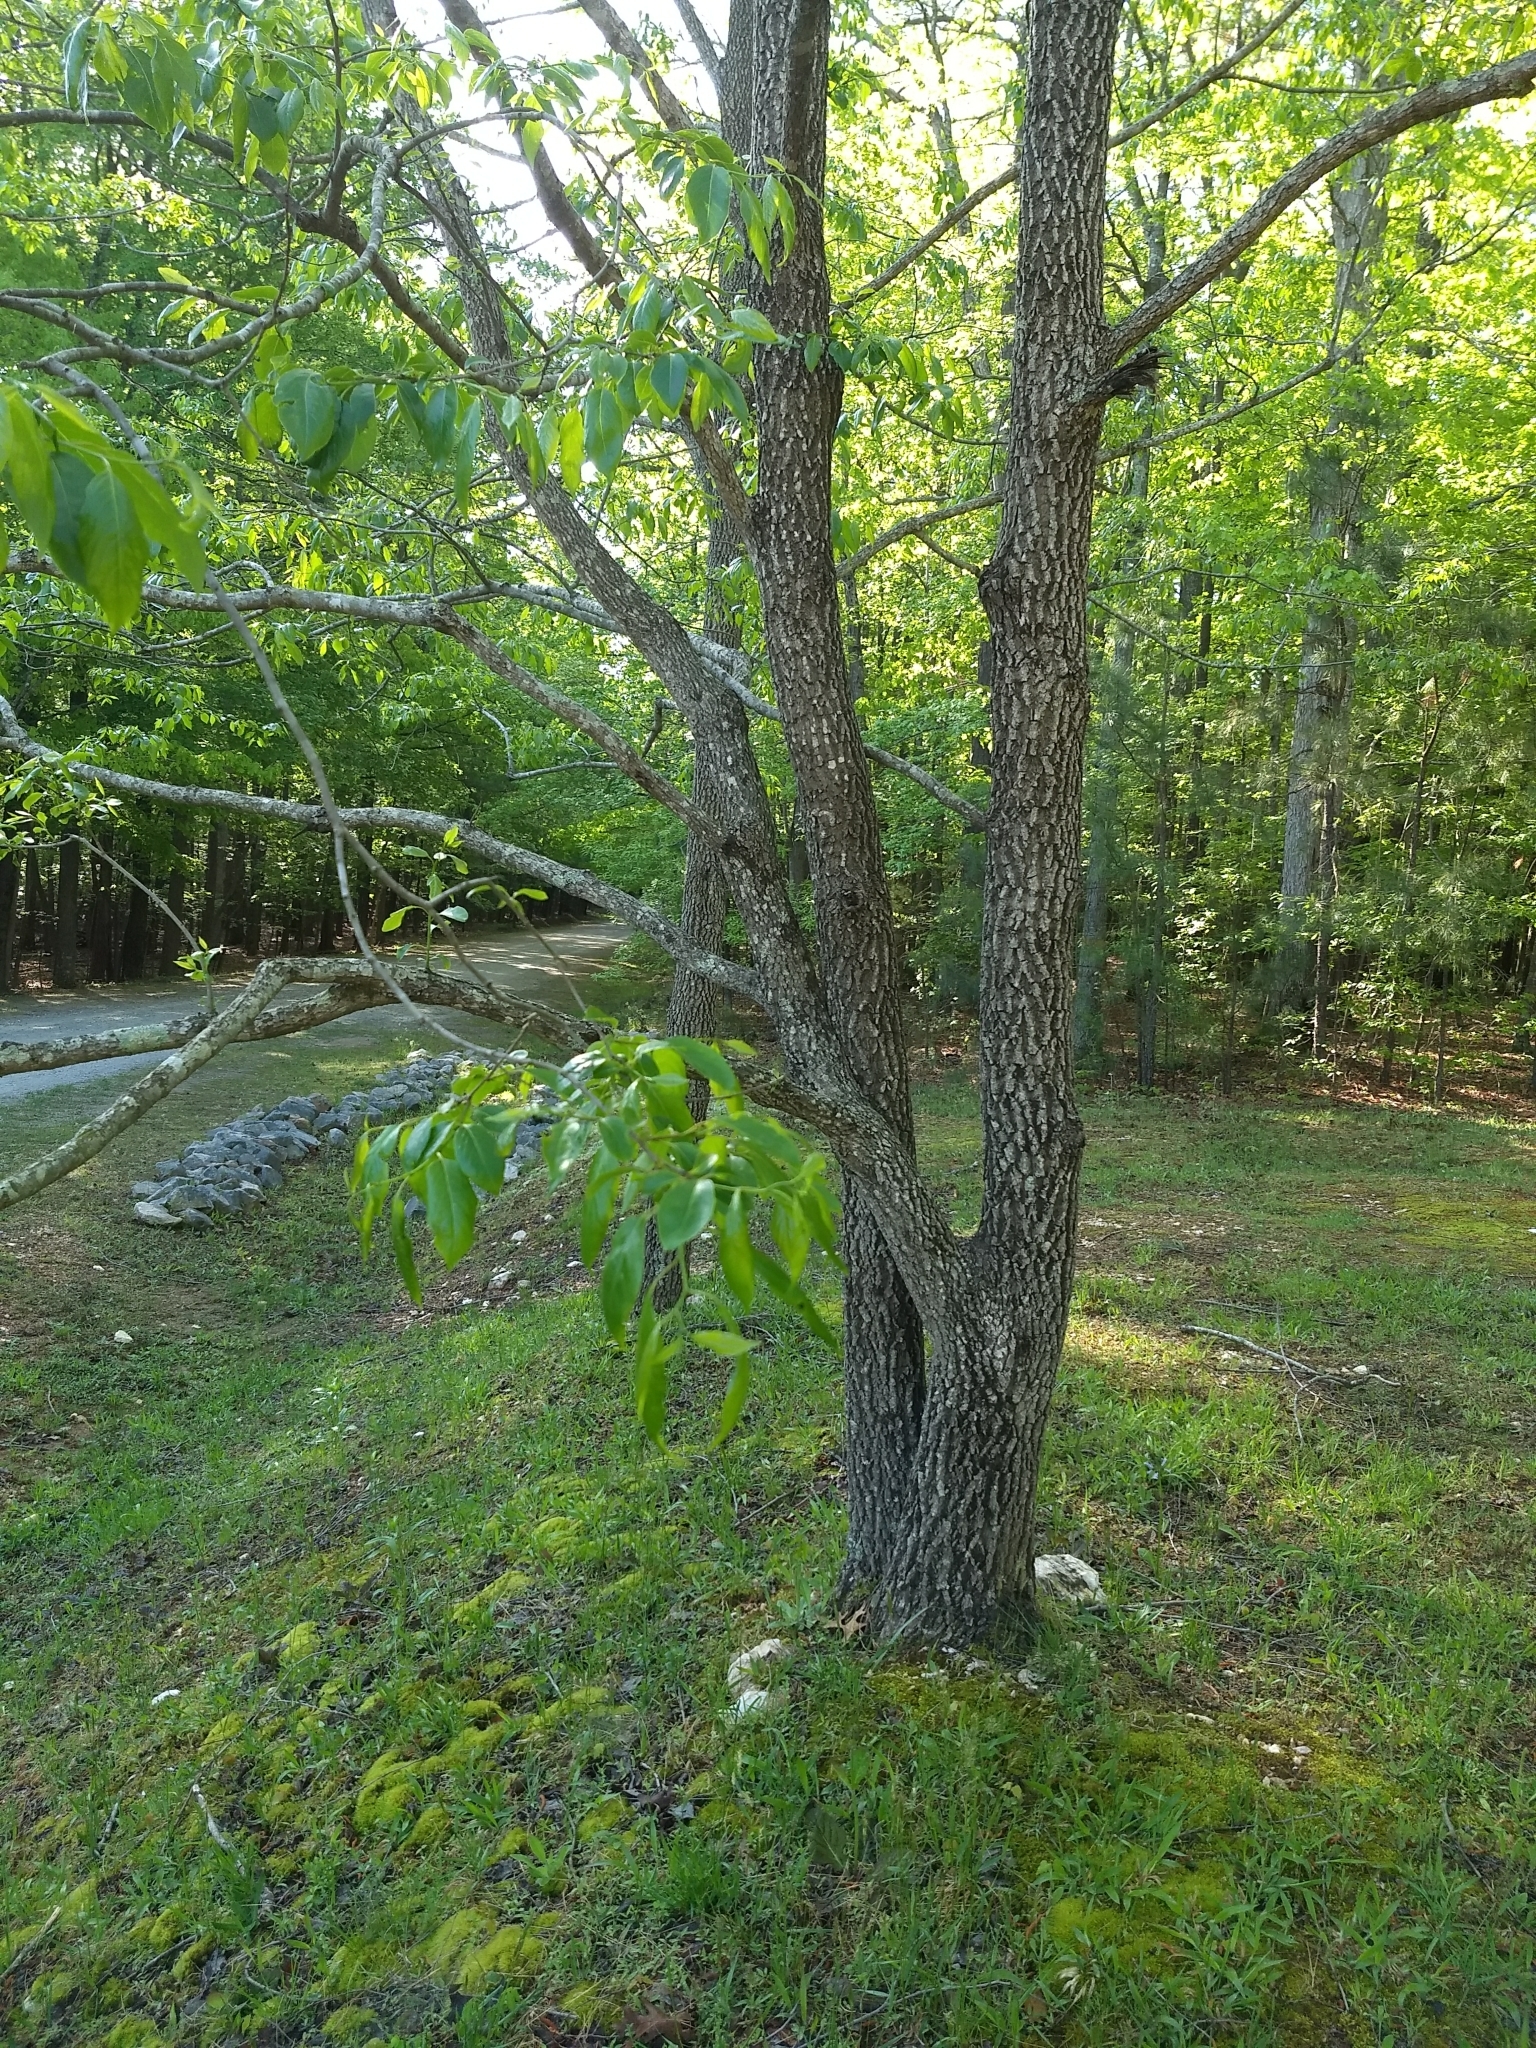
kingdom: Plantae
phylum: Tracheophyta
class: Magnoliopsida
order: Ericales
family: Ebenaceae
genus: Diospyros
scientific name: Diospyros virginiana
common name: Persimmon
